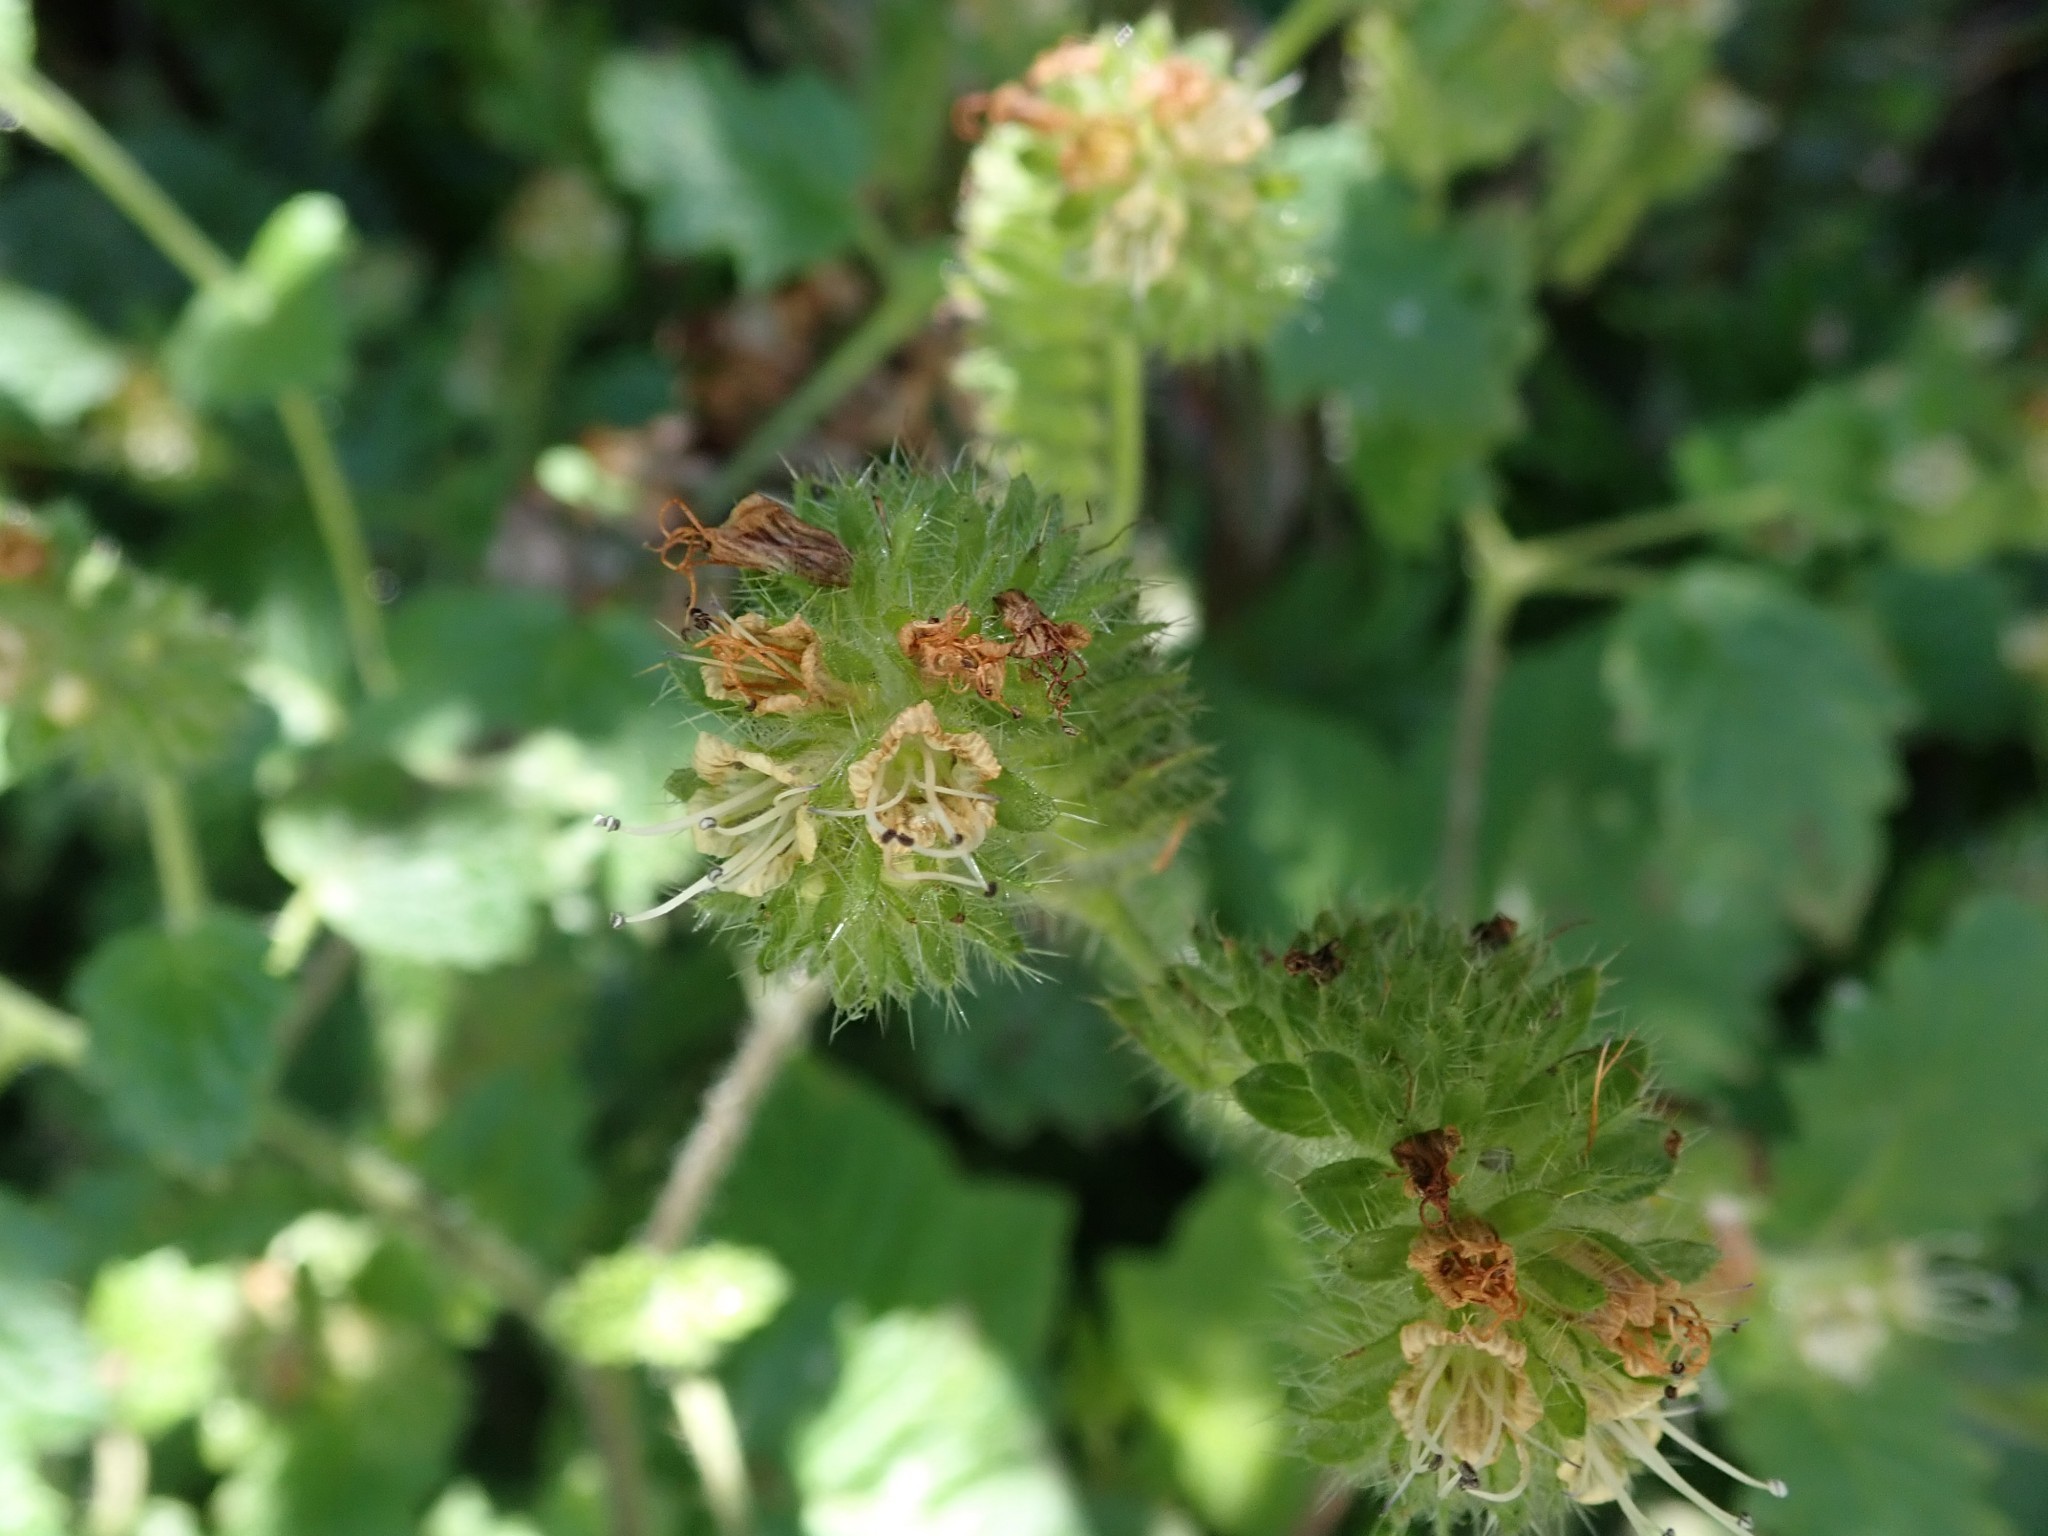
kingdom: Plantae
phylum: Tracheophyta
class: Magnoliopsida
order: Boraginales
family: Hydrophyllaceae
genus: Phacelia
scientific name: Phacelia malvifolia
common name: Mallow-leaf phacelia
